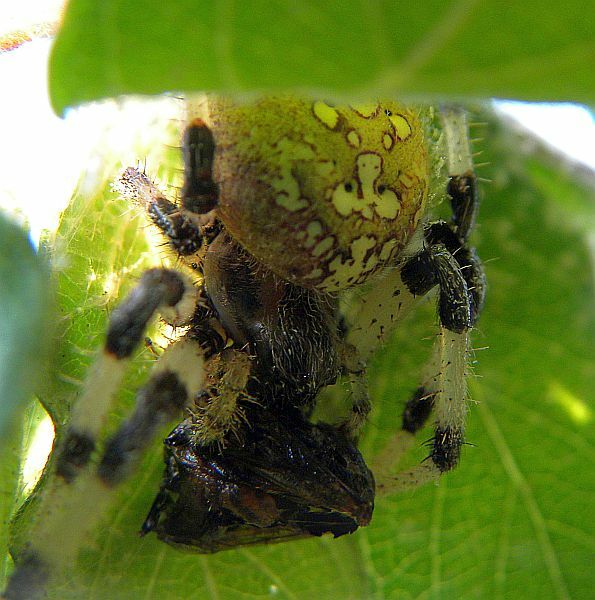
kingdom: Animalia
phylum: Arthropoda
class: Arachnida
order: Araneae
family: Araneidae
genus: Araneus
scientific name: Araneus trifolium
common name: Shamrock orbweaver
